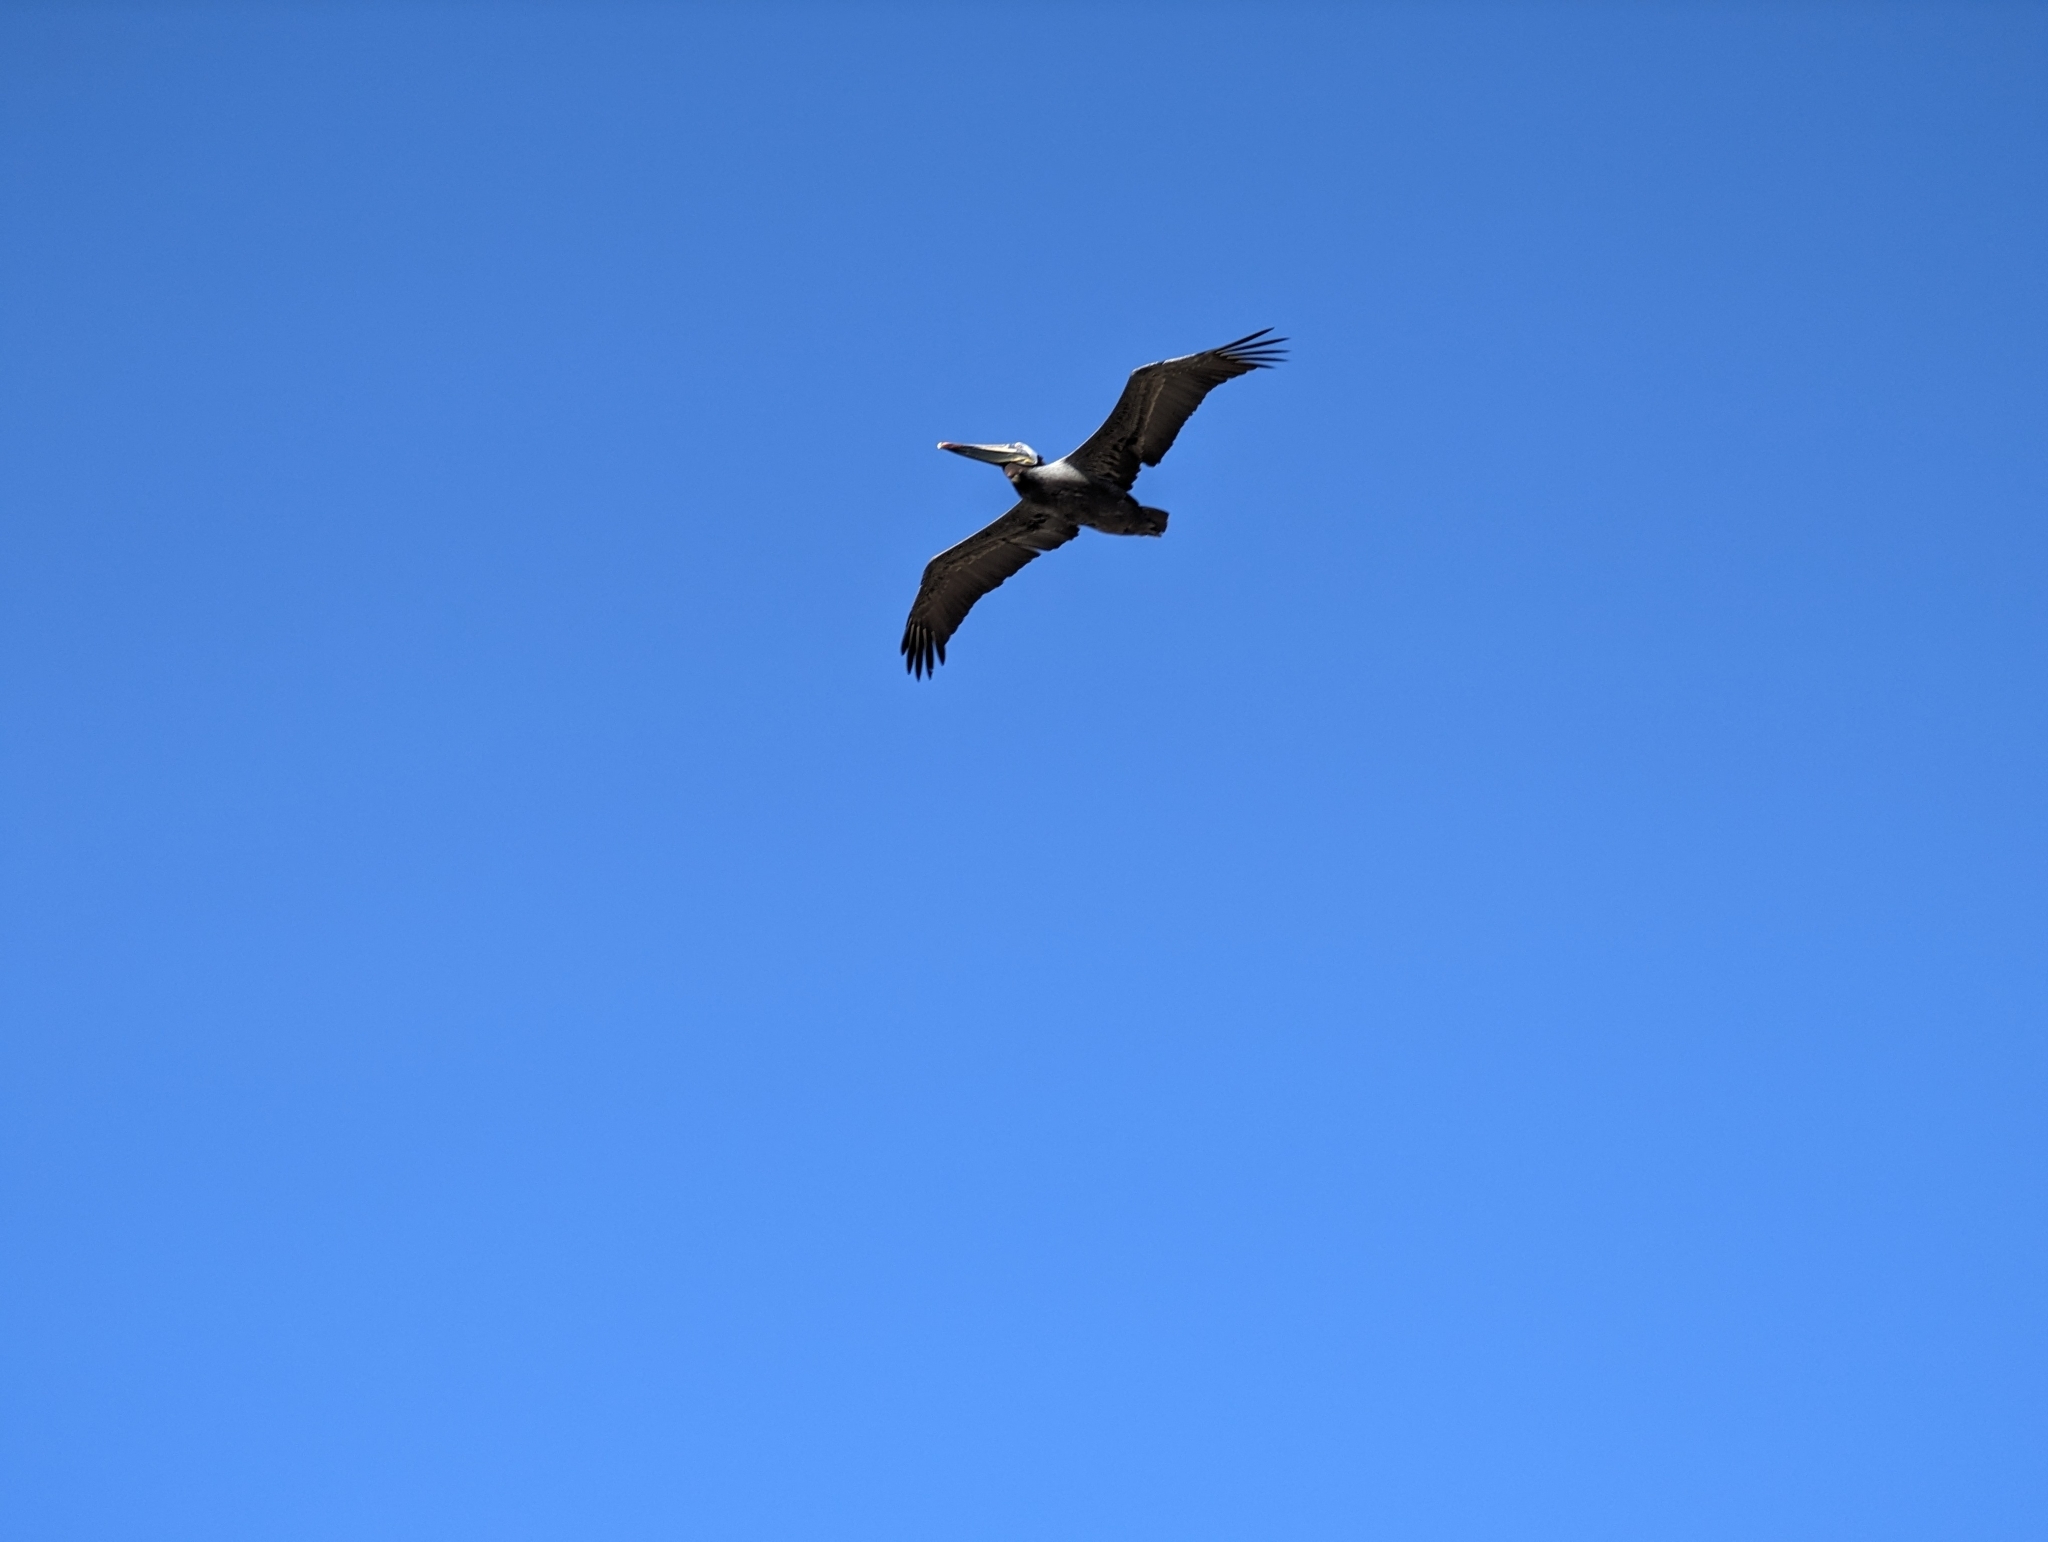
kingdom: Animalia
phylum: Chordata
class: Aves
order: Pelecaniformes
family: Pelecanidae
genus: Pelecanus
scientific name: Pelecanus occidentalis
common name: Brown pelican
